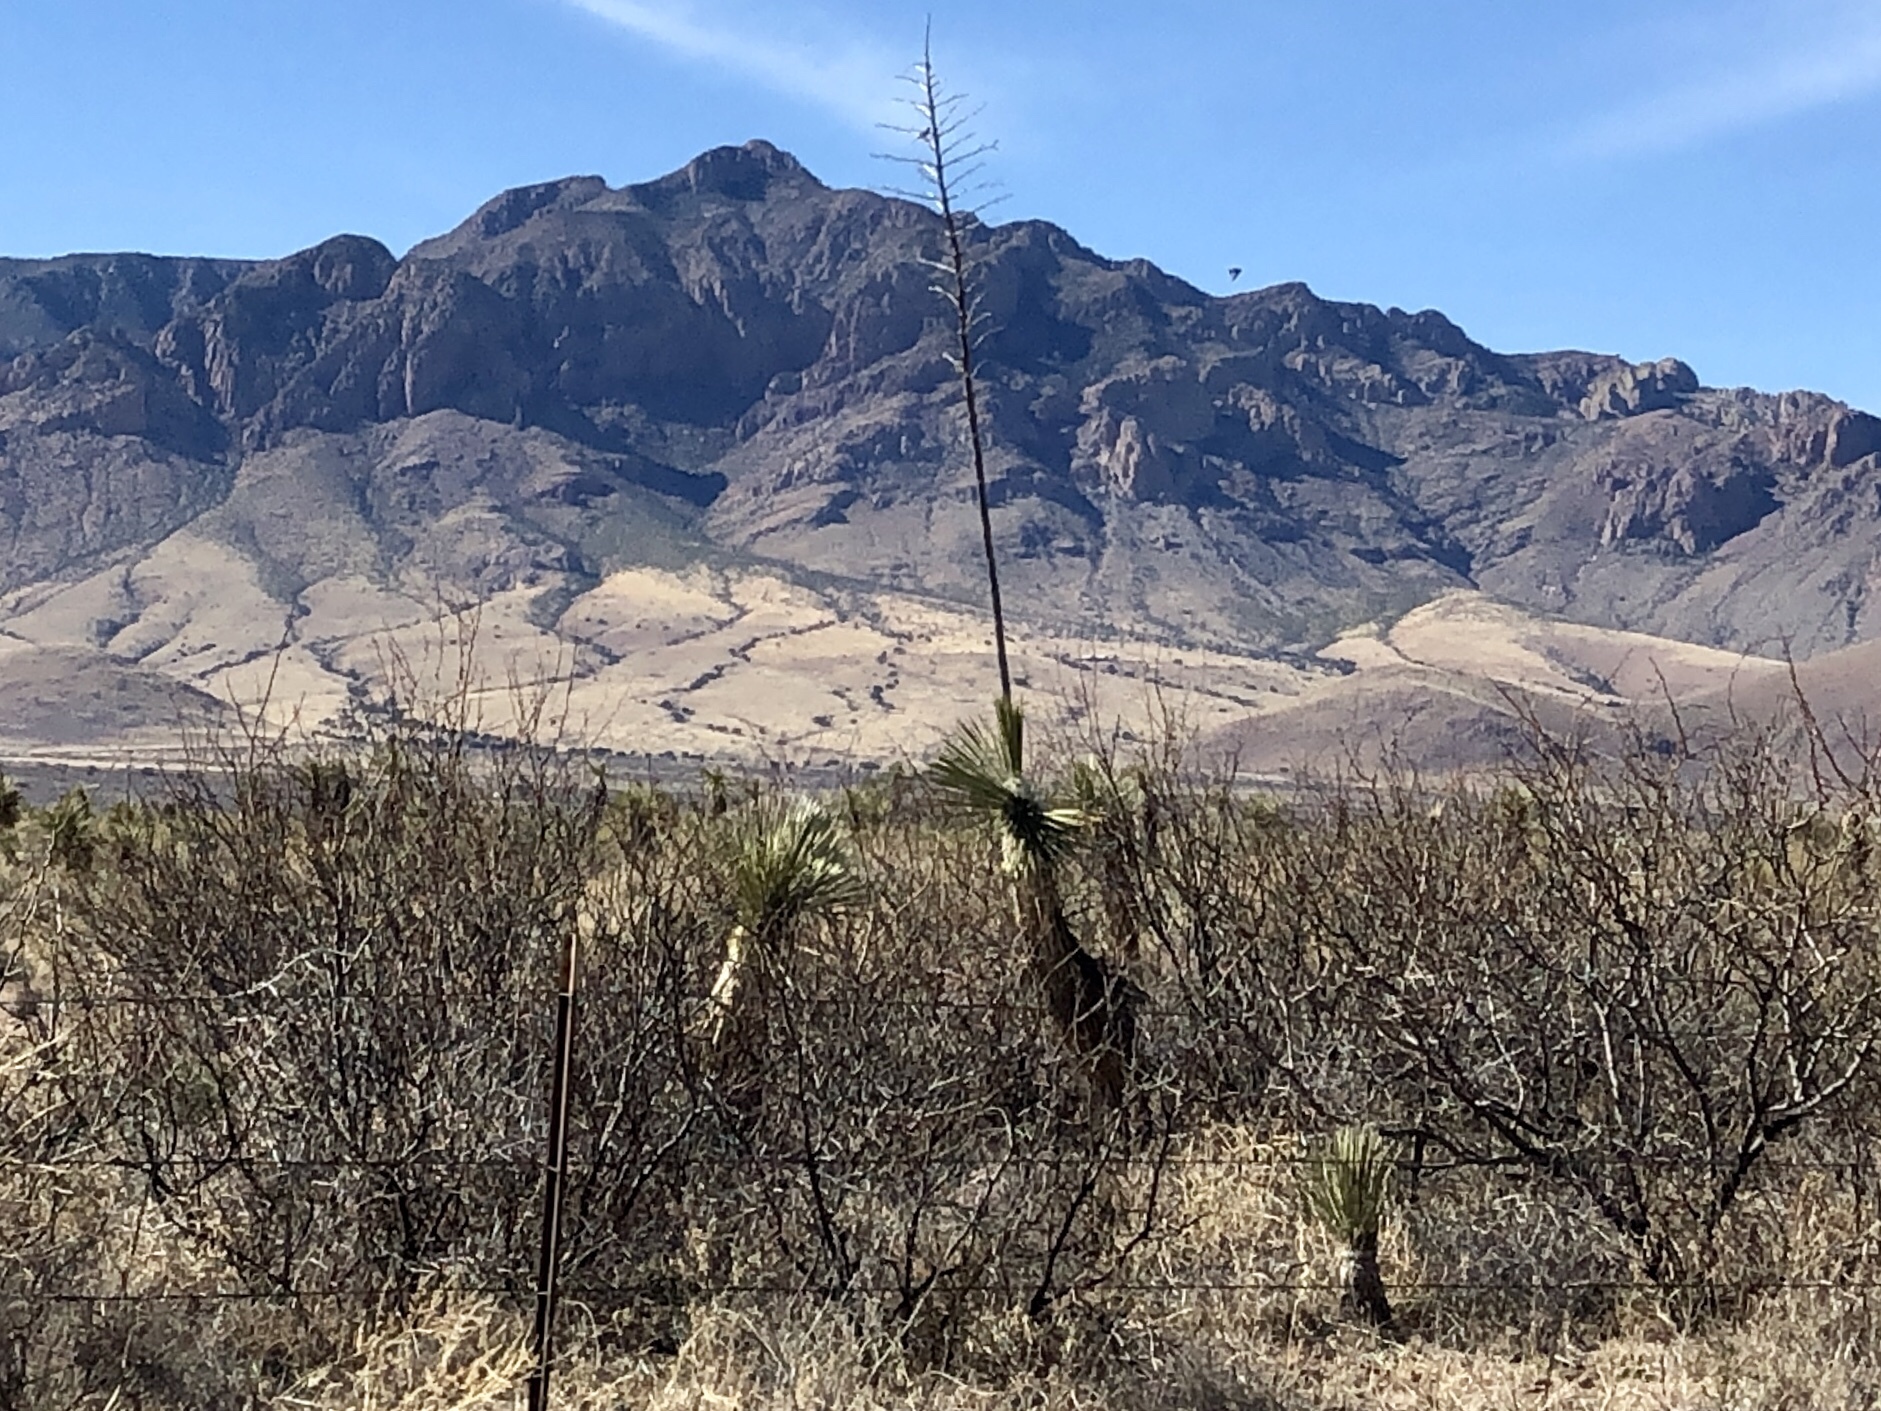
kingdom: Plantae
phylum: Tracheophyta
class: Liliopsida
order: Asparagales
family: Asparagaceae
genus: Yucca
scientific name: Yucca elata
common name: Palmella
